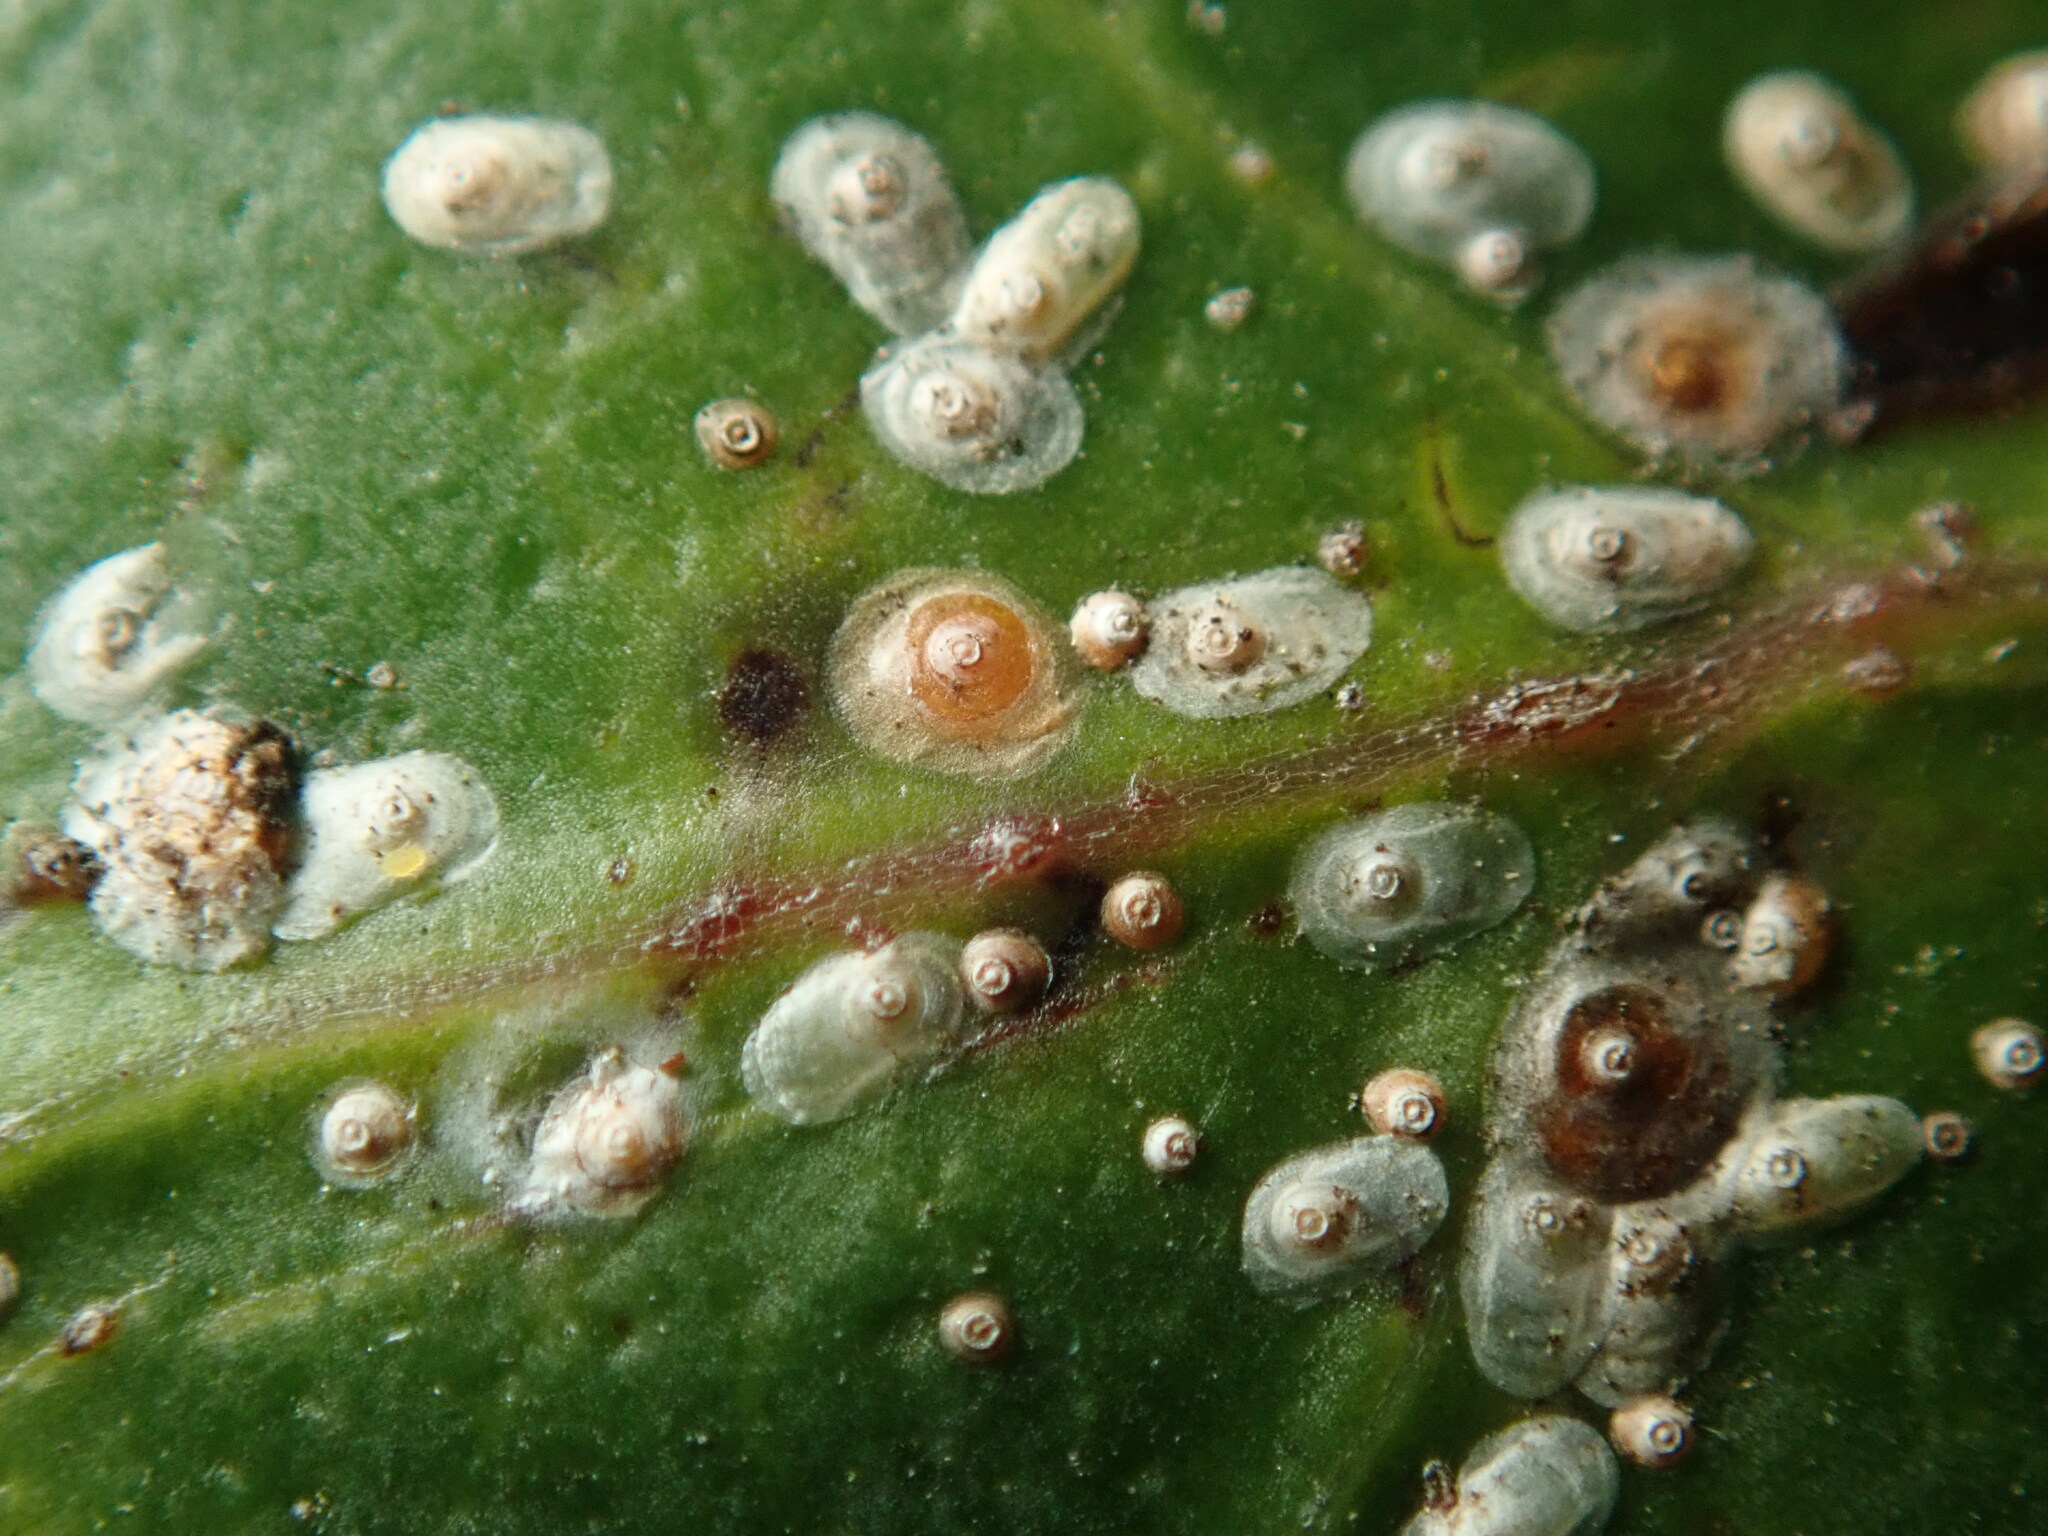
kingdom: Animalia
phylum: Arthropoda
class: Insecta
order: Hemiptera
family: Diaspididae
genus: Aonidiella
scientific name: Aonidiella aurantii
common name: California red scale
